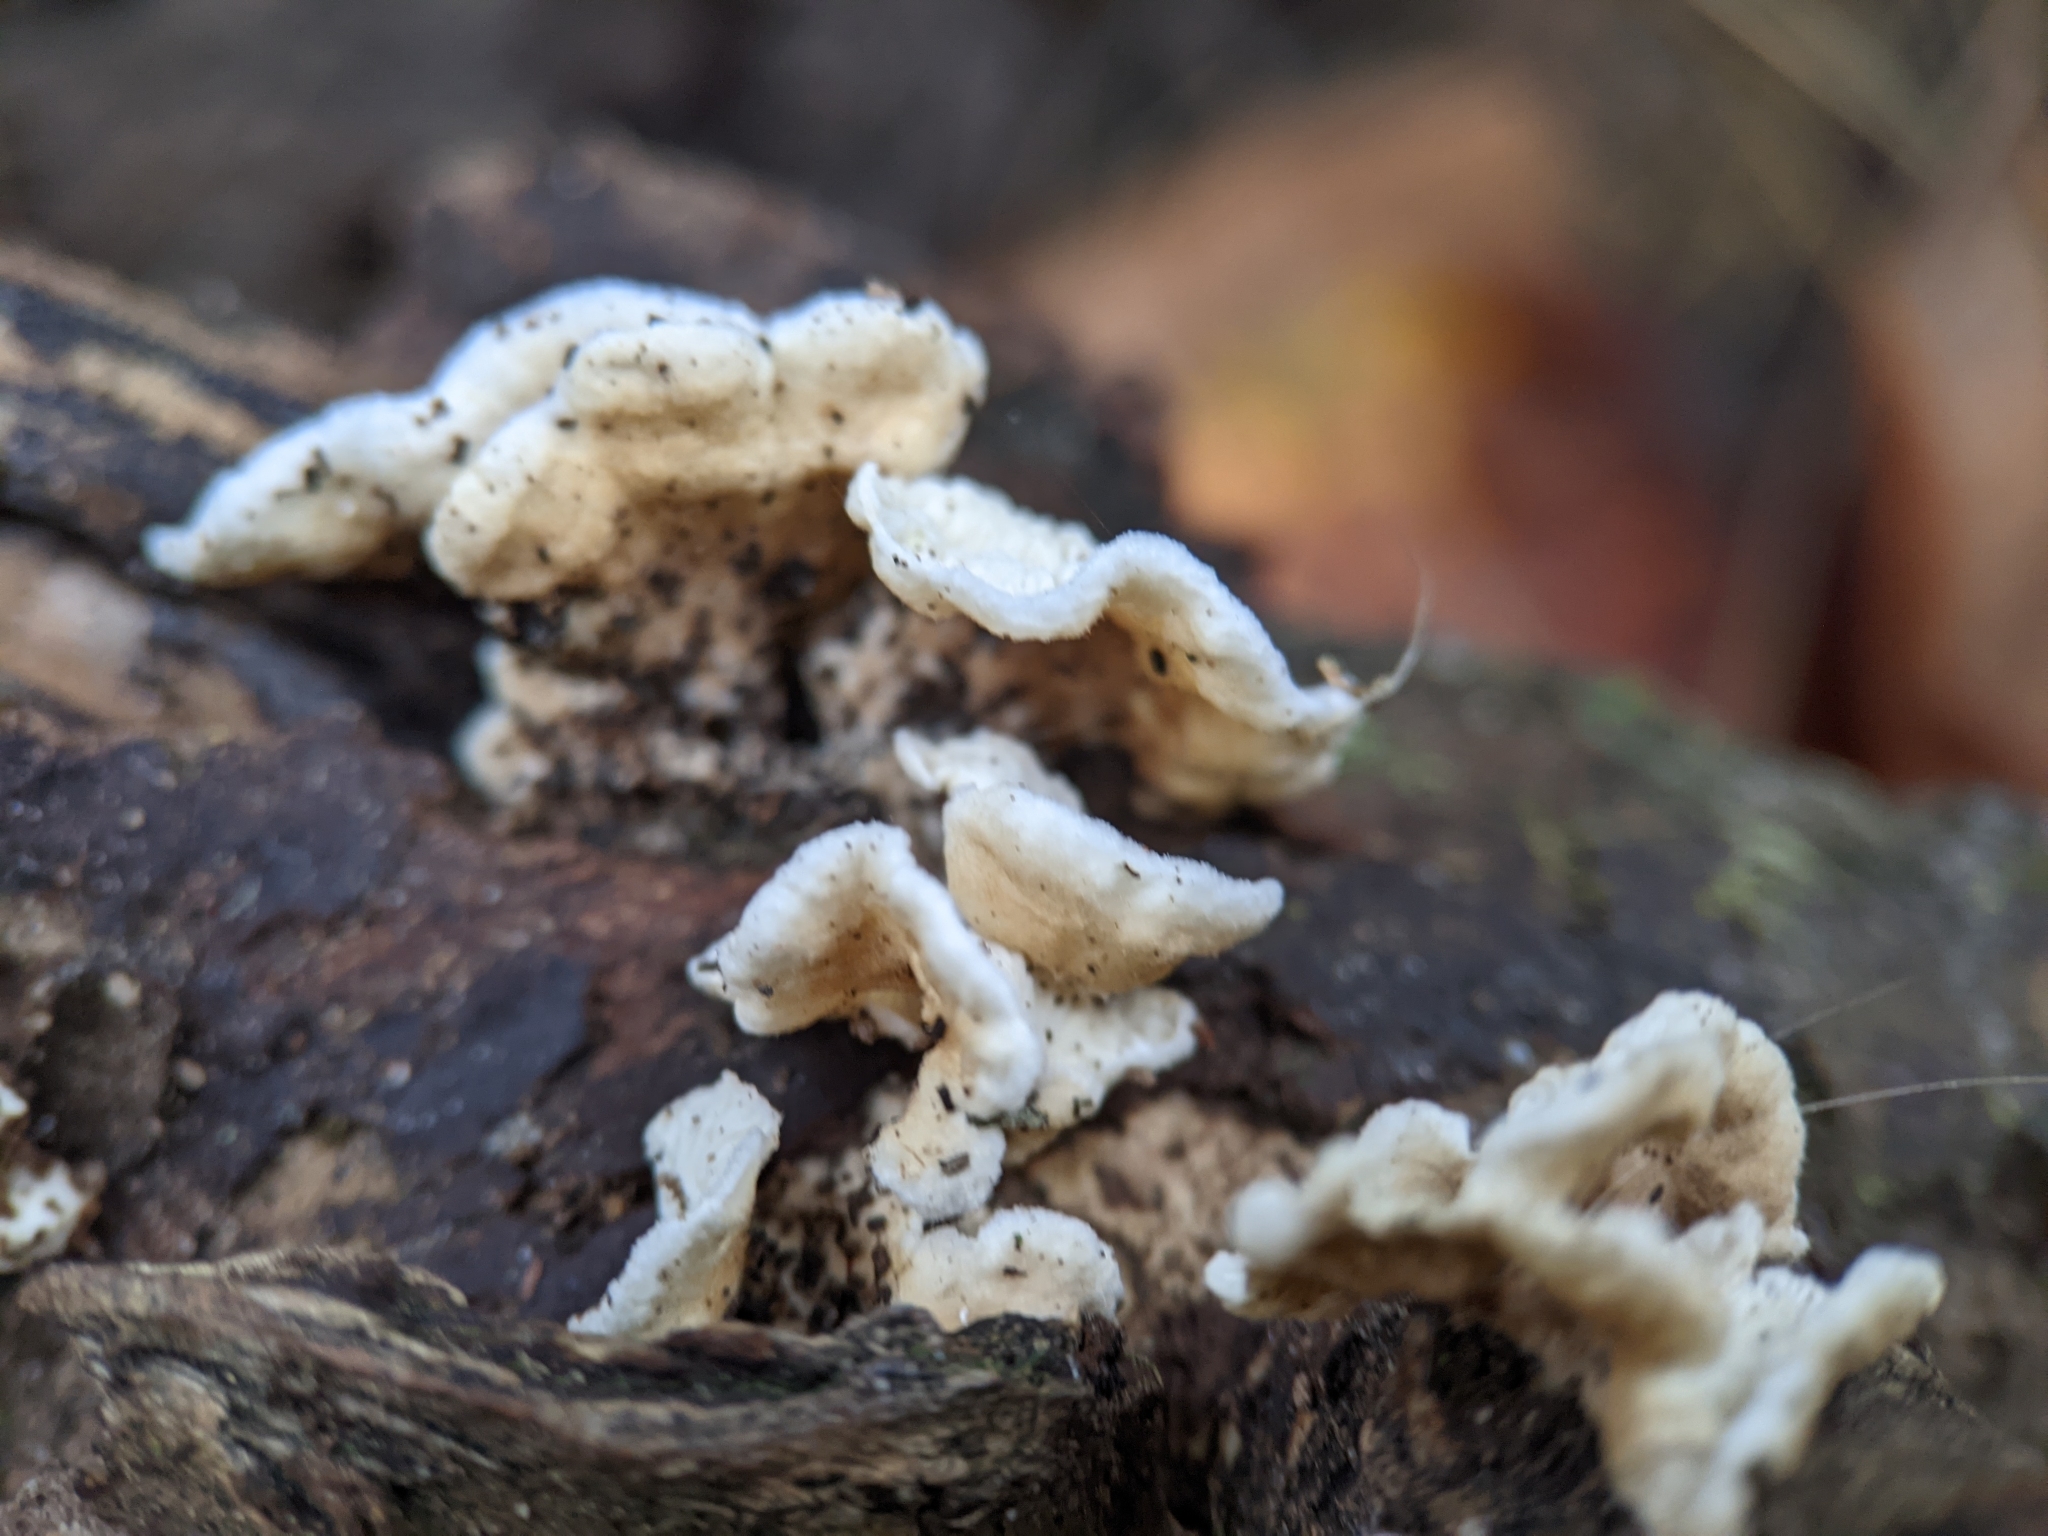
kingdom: Fungi
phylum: Basidiomycota
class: Agaricomycetes
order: Amylocorticiales
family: Amylocorticiaceae
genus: Plicaturopsis
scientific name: Plicaturopsis crispa
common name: Crimped gill
